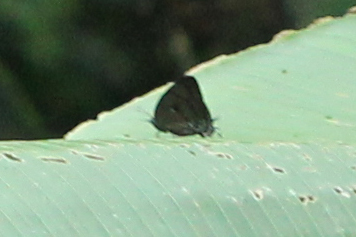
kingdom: Animalia
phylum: Arthropoda
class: Insecta
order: Lepidoptera
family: Lycaenidae
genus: Denivia
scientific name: Denivia hemon
